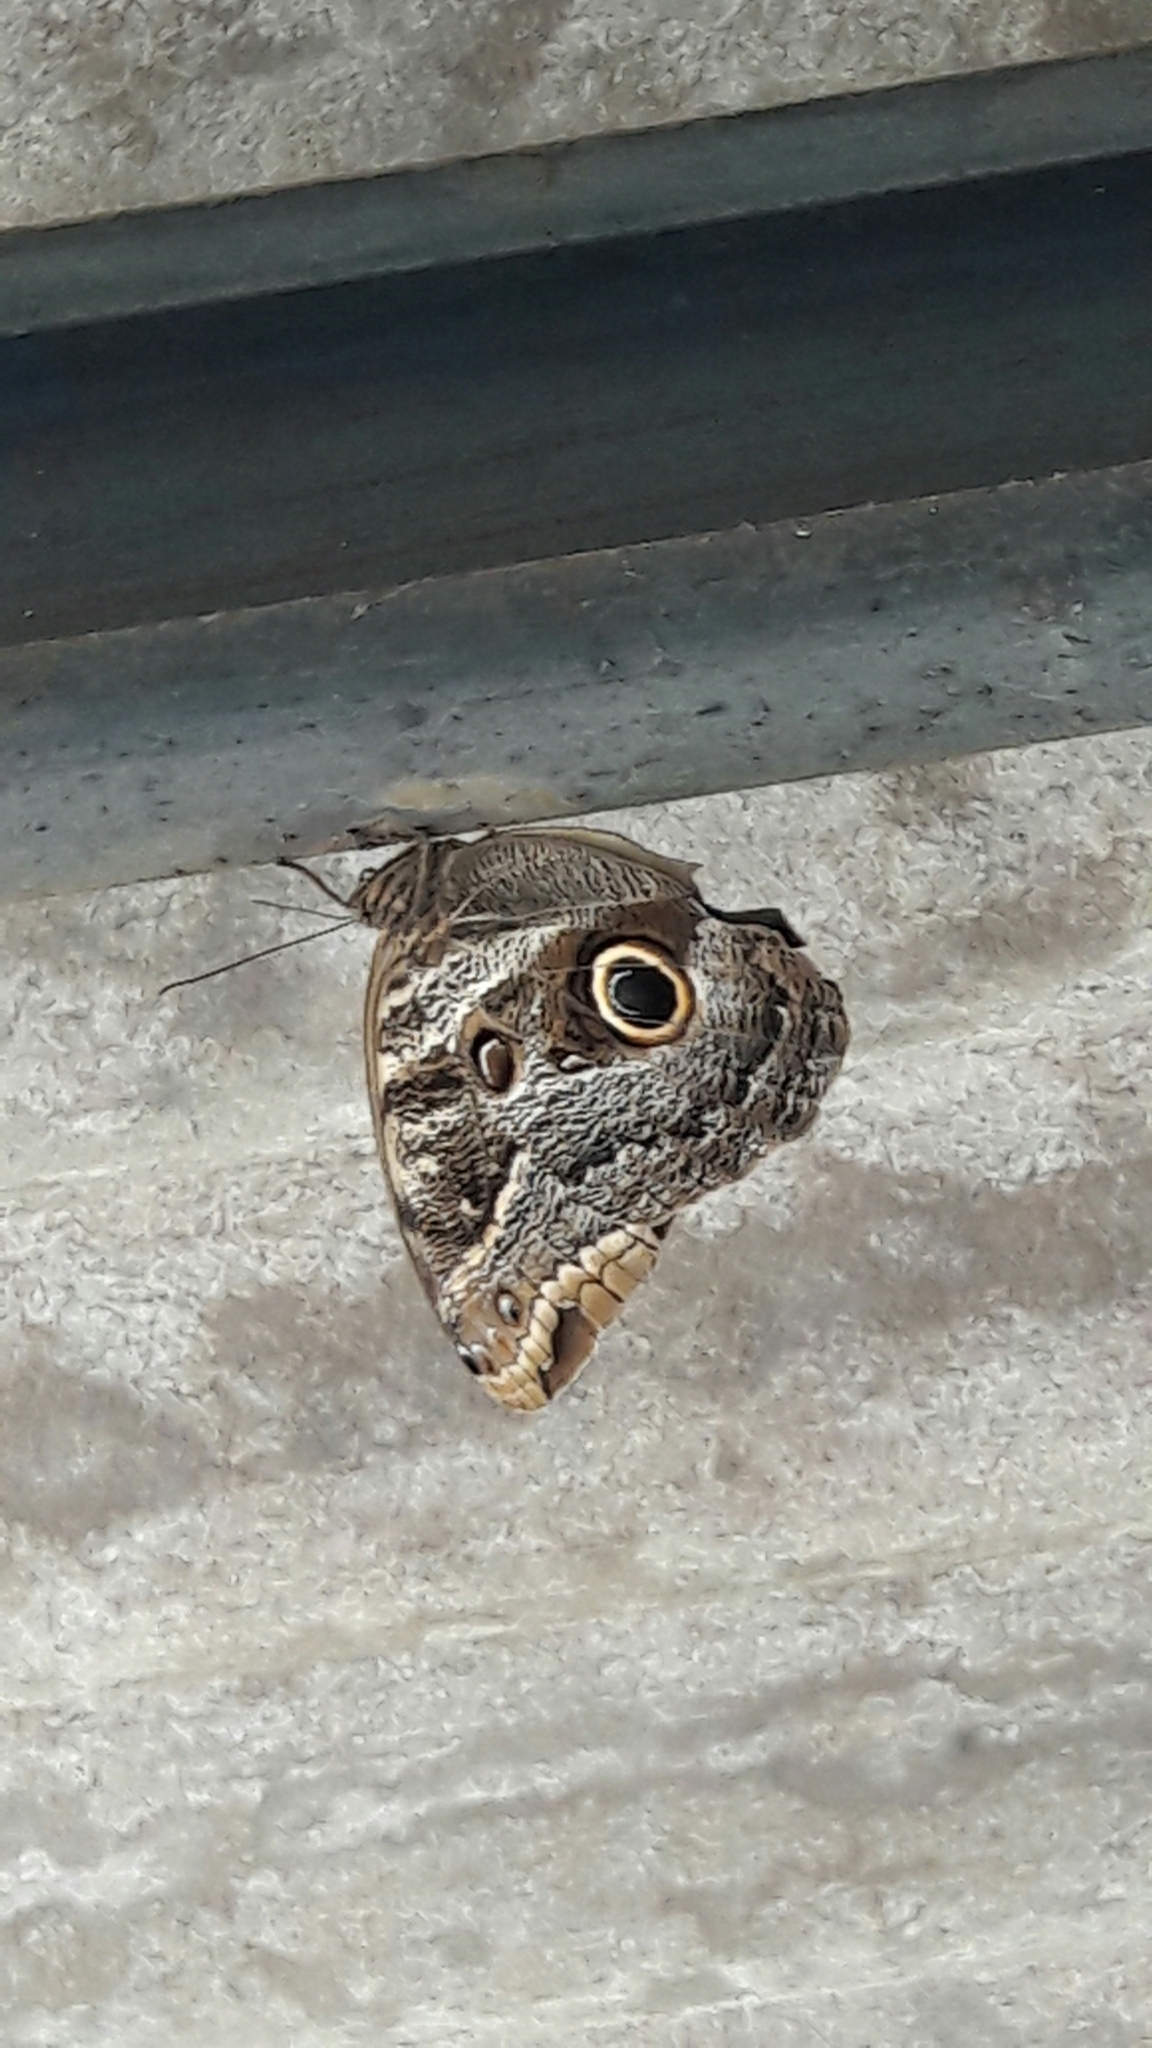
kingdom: Animalia
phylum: Arthropoda
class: Insecta
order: Lepidoptera
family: Nymphalidae
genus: Caligo
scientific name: Caligo illioneus
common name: Dusky owl-butterfly
